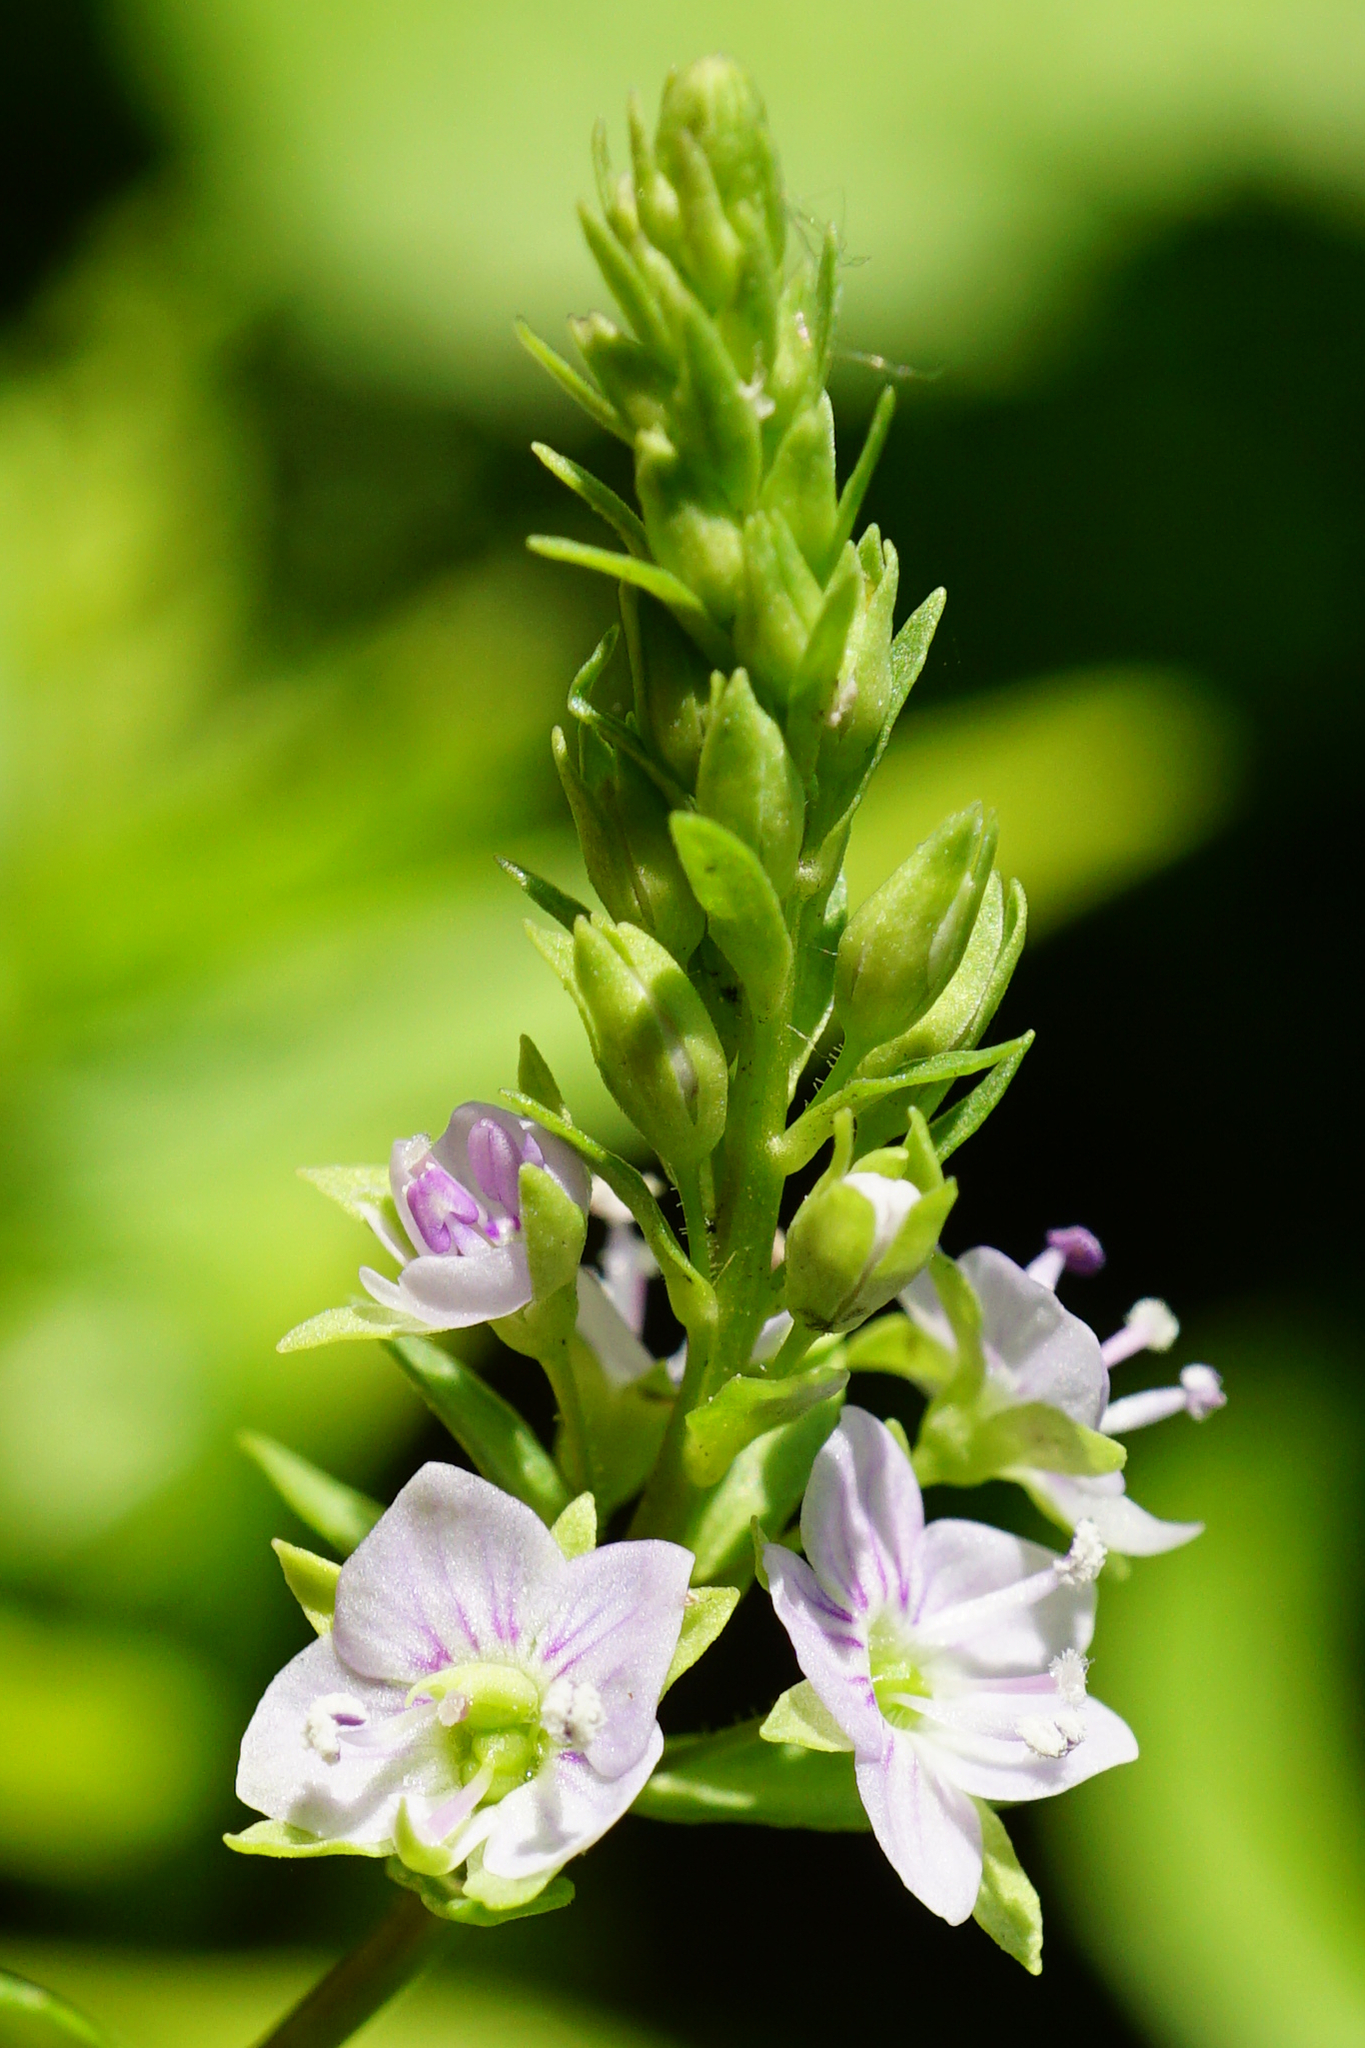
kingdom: Plantae
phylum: Tracheophyta
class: Magnoliopsida
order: Lamiales
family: Plantaginaceae
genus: Veronica
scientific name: Veronica anagallis-aquatica
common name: Water speedwell
